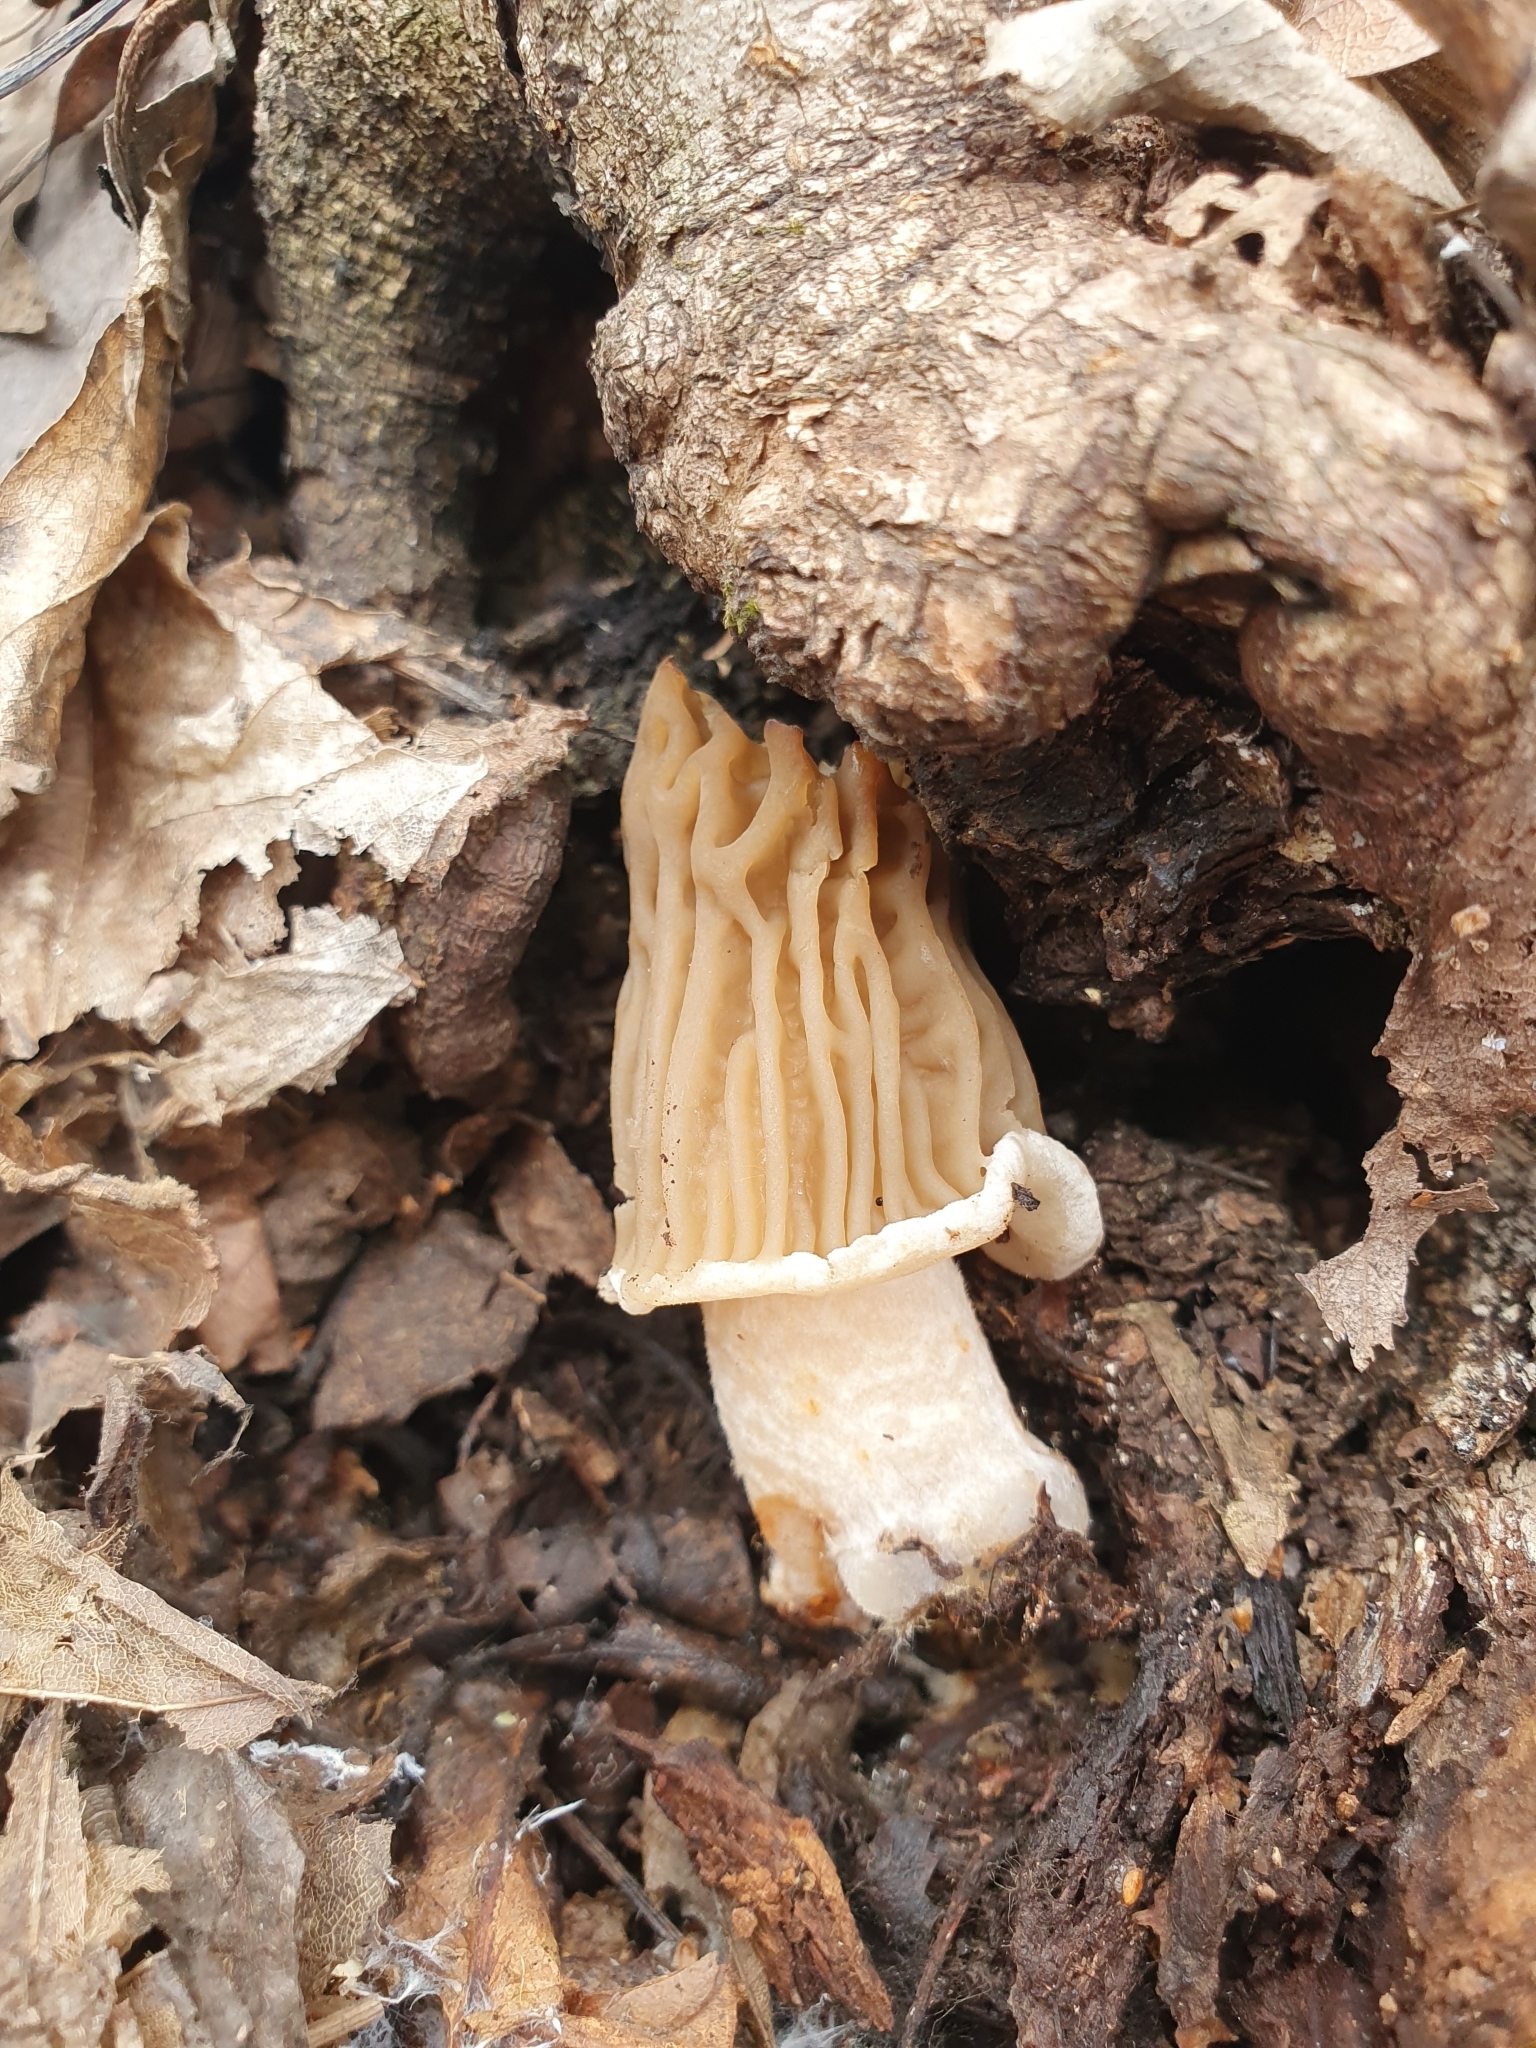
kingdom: Fungi
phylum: Ascomycota
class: Pezizomycetes
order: Pezizales
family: Morchellaceae
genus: Verpa
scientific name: Verpa bohemica
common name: Wrinkled thimble morel
